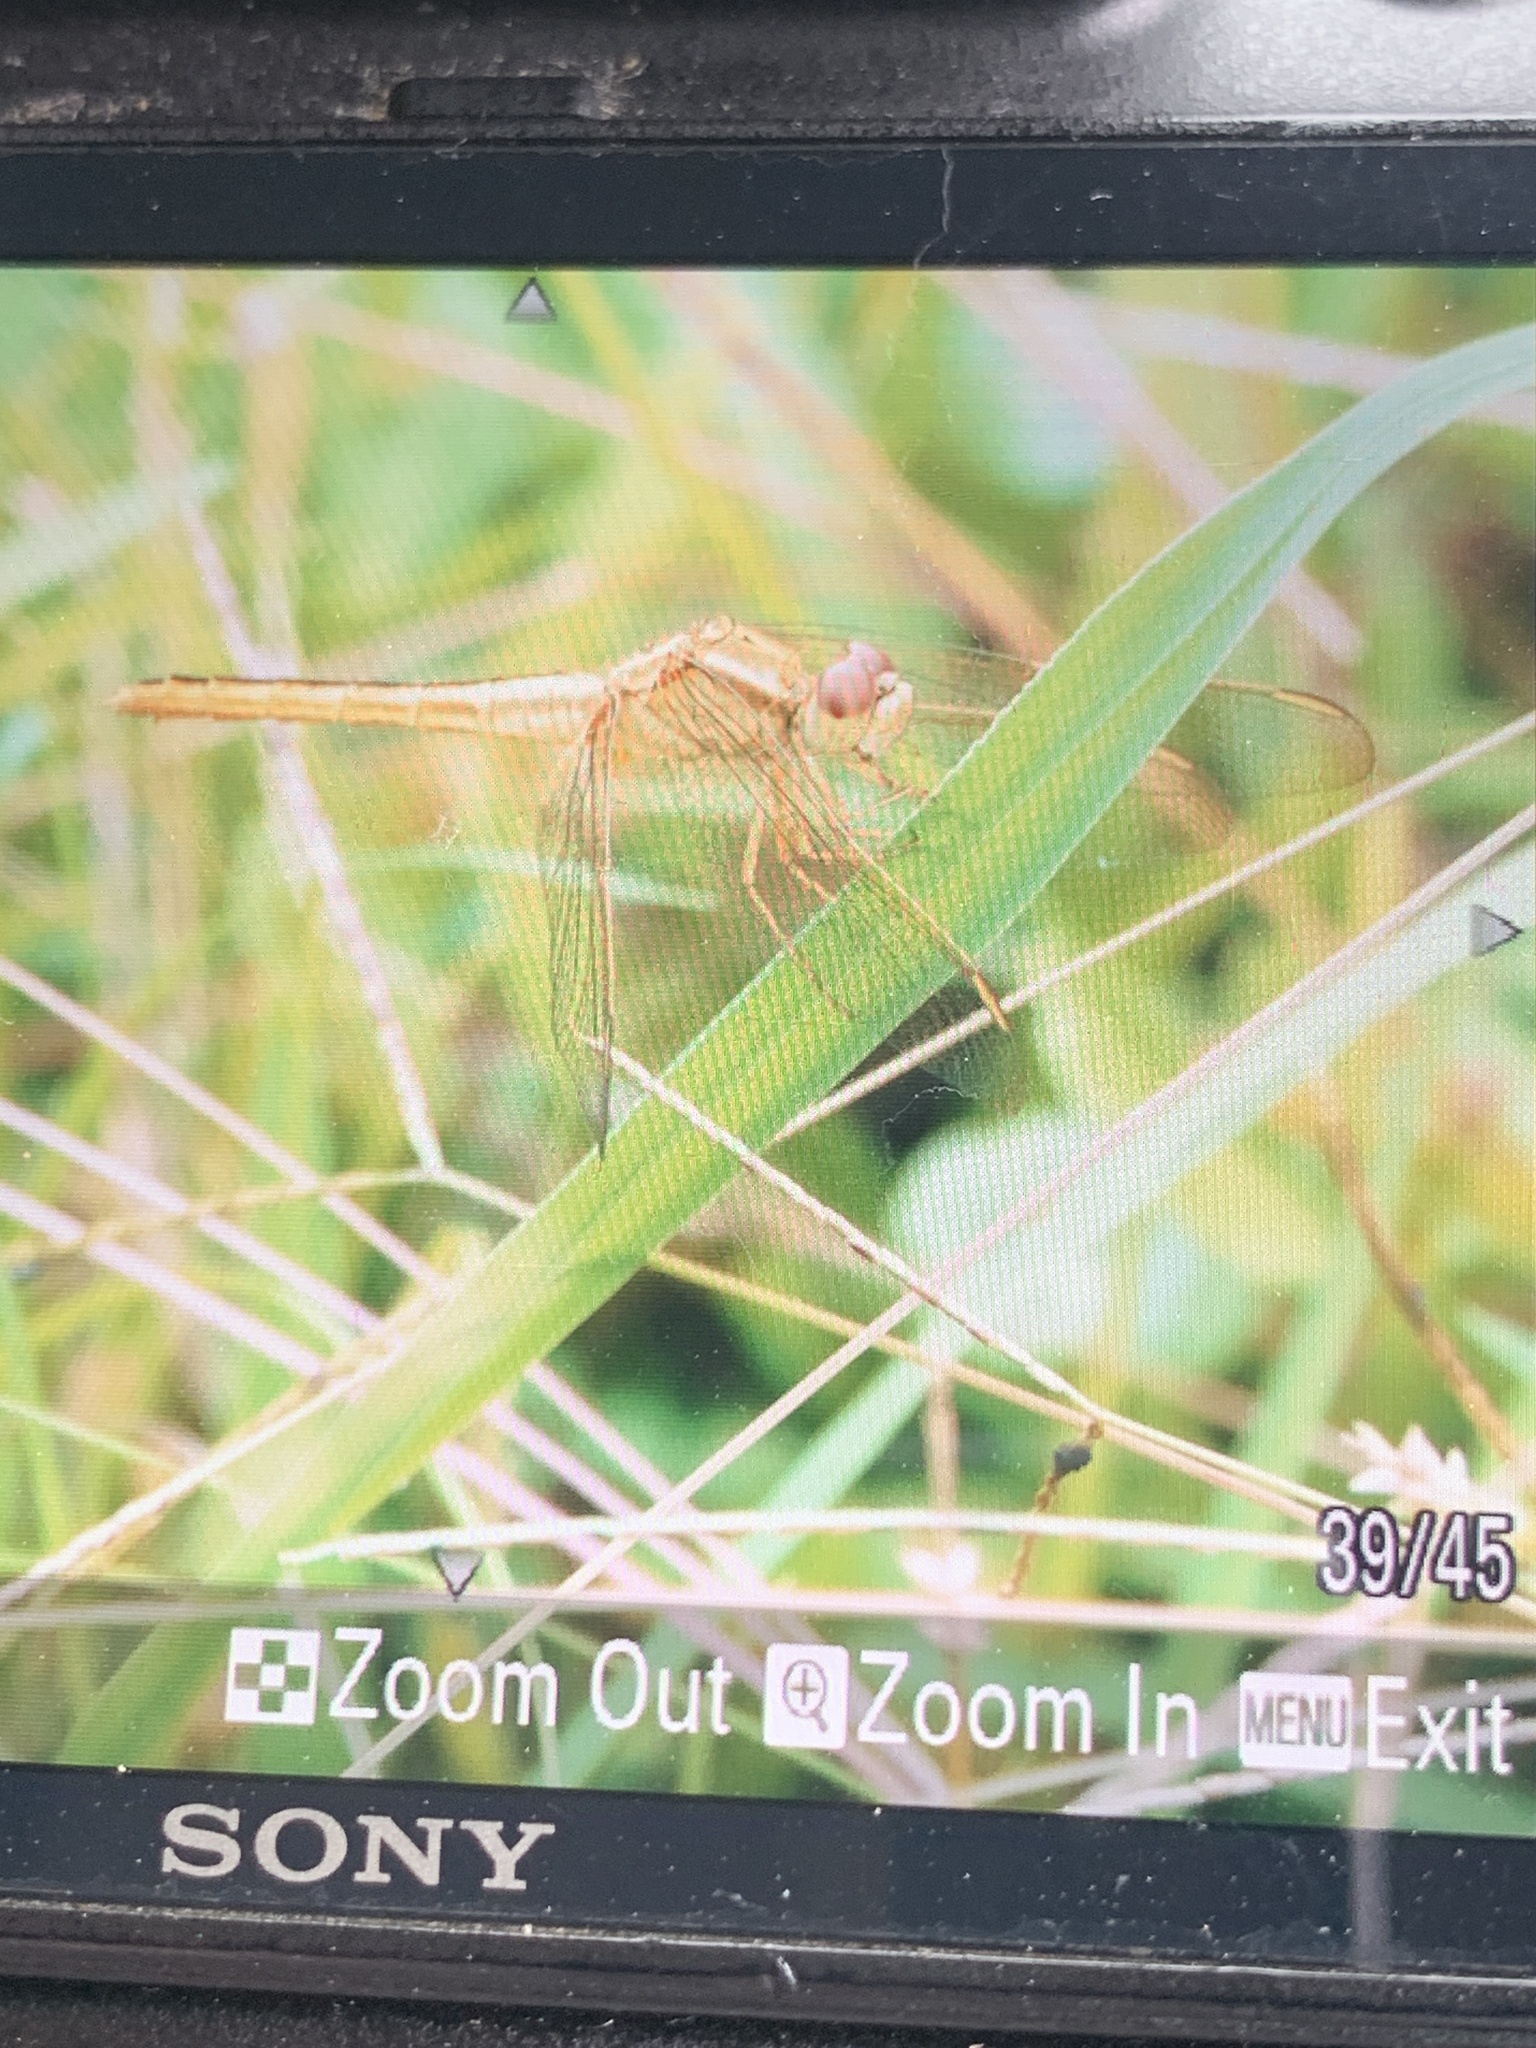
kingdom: Animalia
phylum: Arthropoda
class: Insecta
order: Odonata
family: Libellulidae
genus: Crocothemis
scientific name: Crocothemis servilia
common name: Scarlet skimmer
